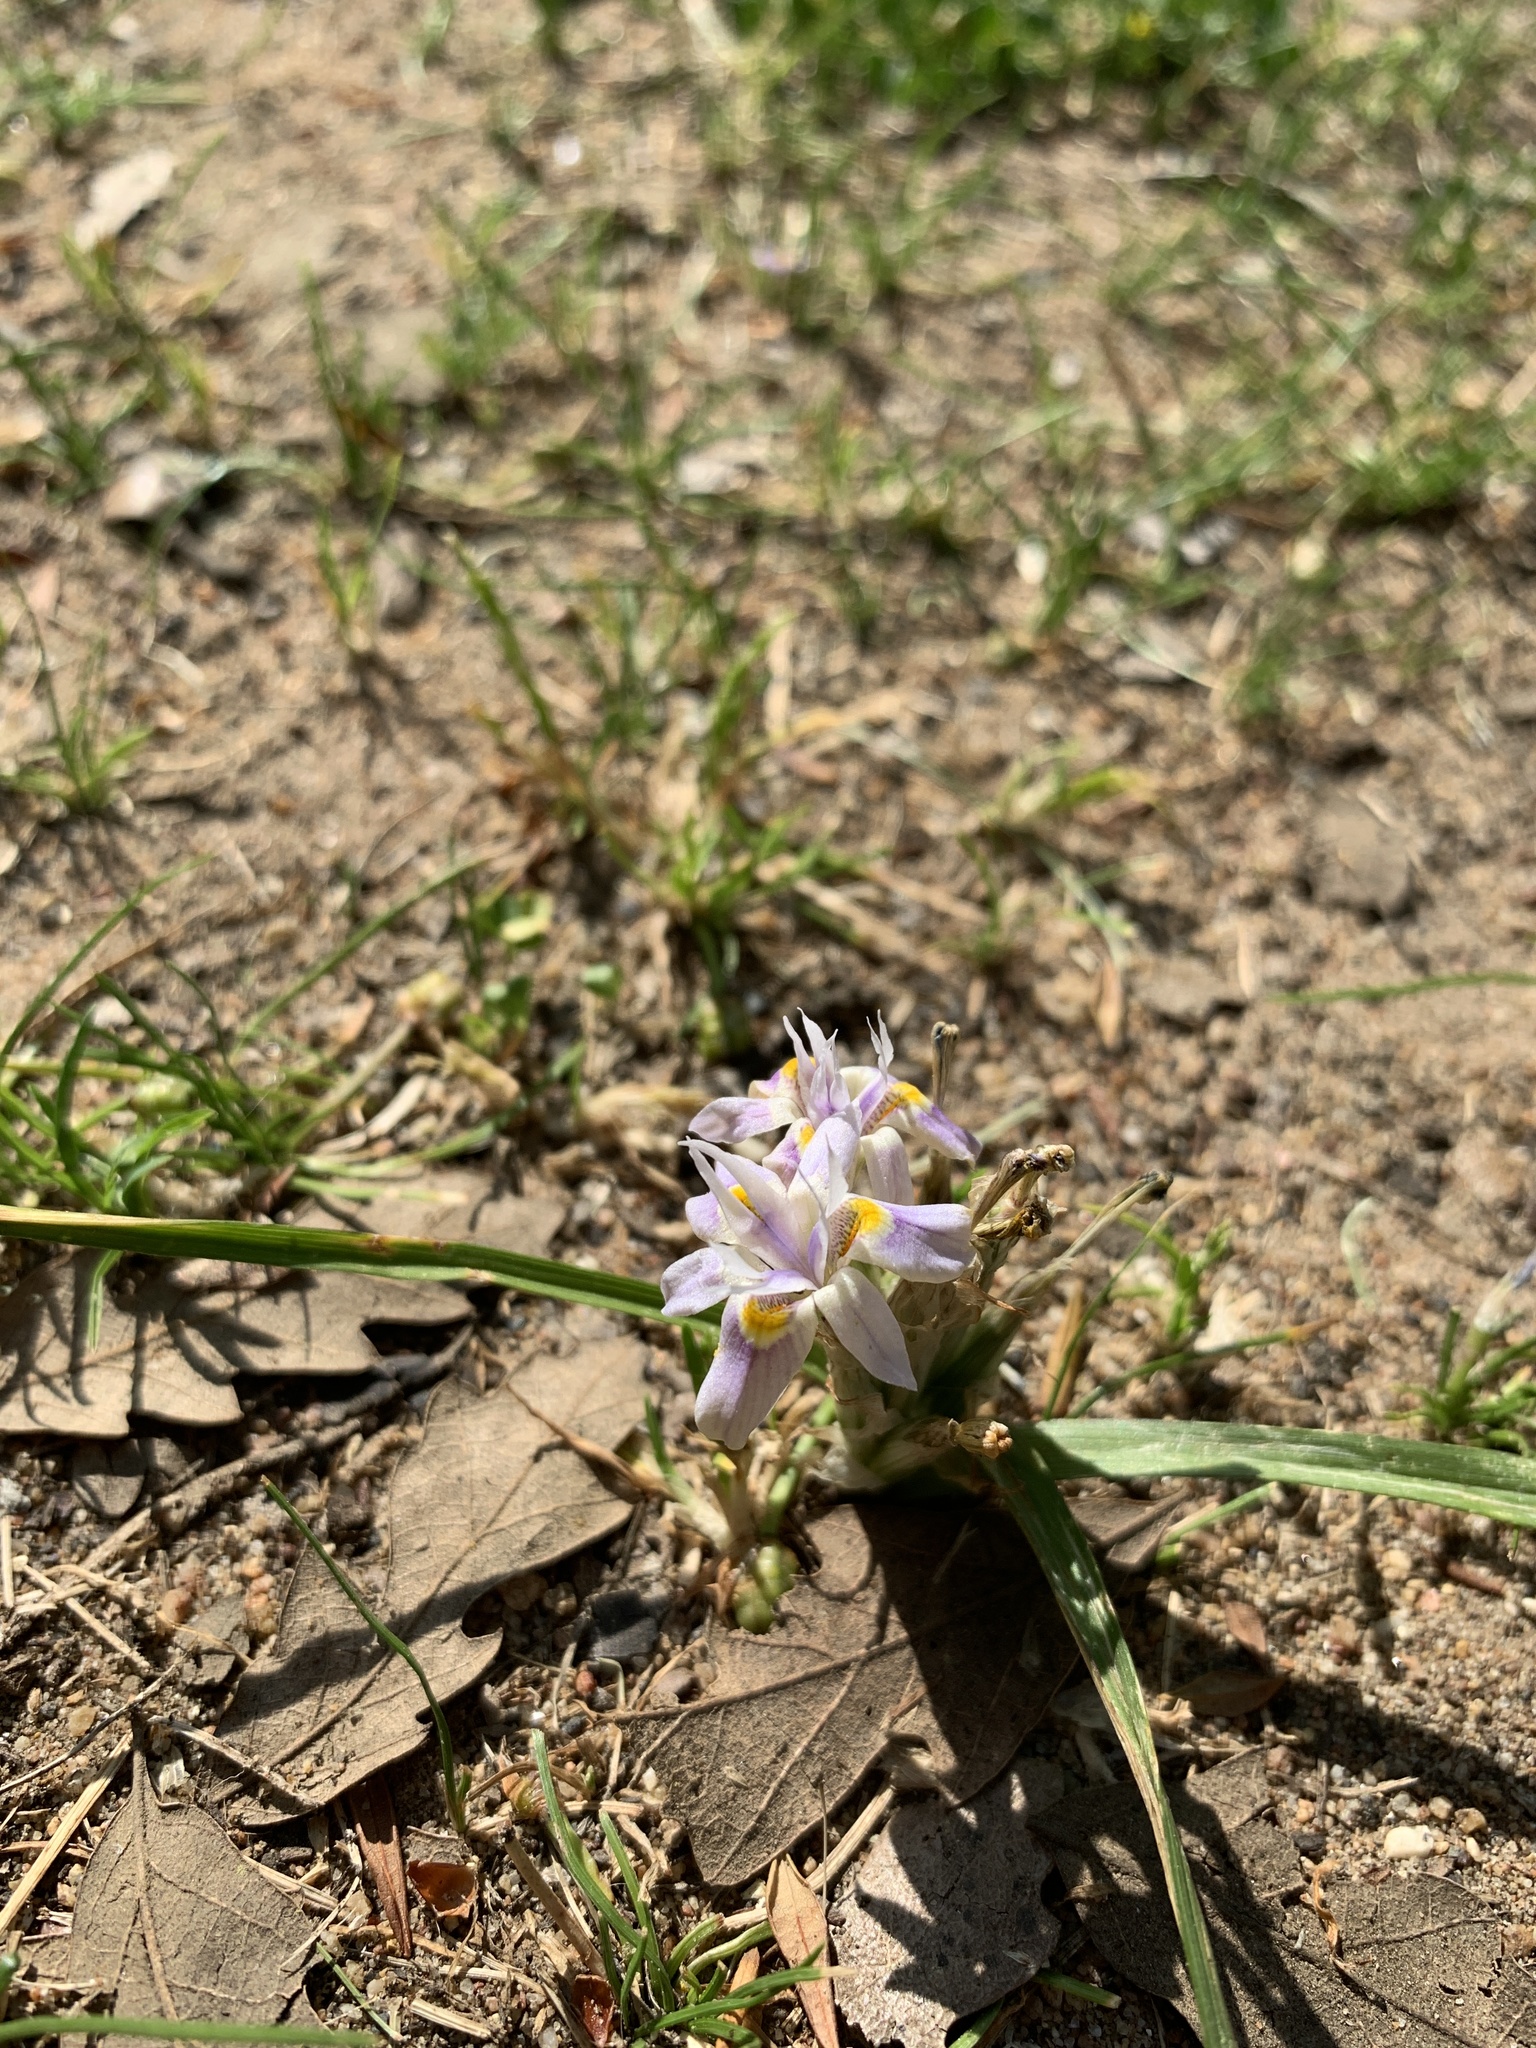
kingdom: Plantae
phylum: Tracheophyta
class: Liliopsida
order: Asparagales
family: Iridaceae
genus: Moraea
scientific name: Moraea setifolia
